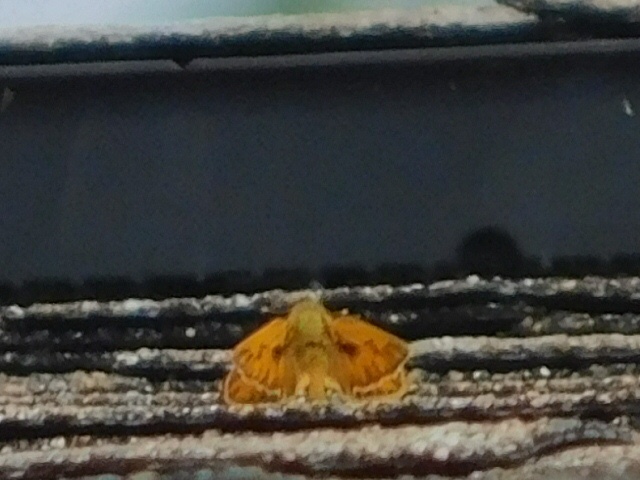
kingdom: Animalia
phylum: Arthropoda
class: Insecta
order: Lepidoptera
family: Hesperiidae
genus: Hylephila
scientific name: Hylephila phyleus
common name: Fiery skipper
